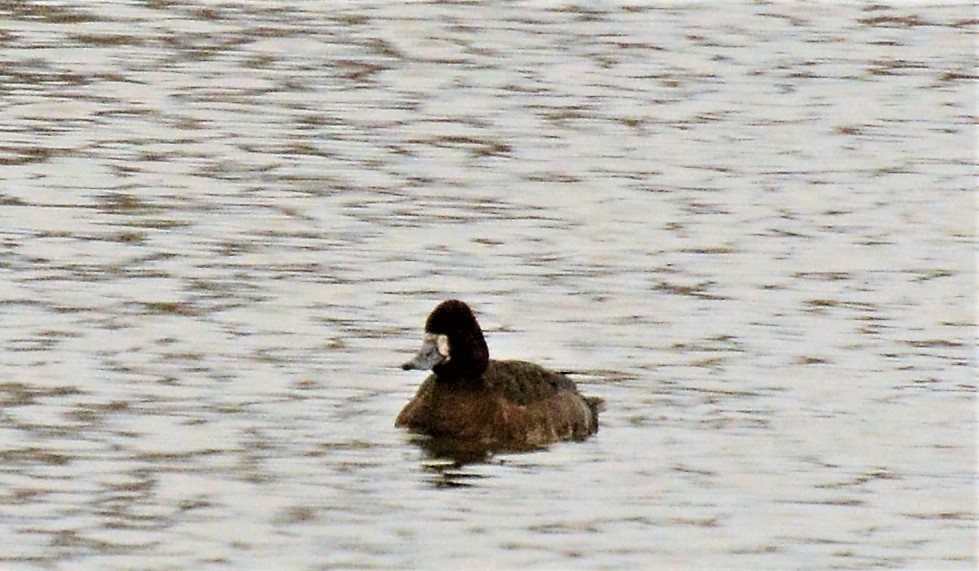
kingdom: Animalia
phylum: Chordata
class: Aves
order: Anseriformes
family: Anatidae
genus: Aythya
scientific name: Aythya affinis
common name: Lesser scaup
